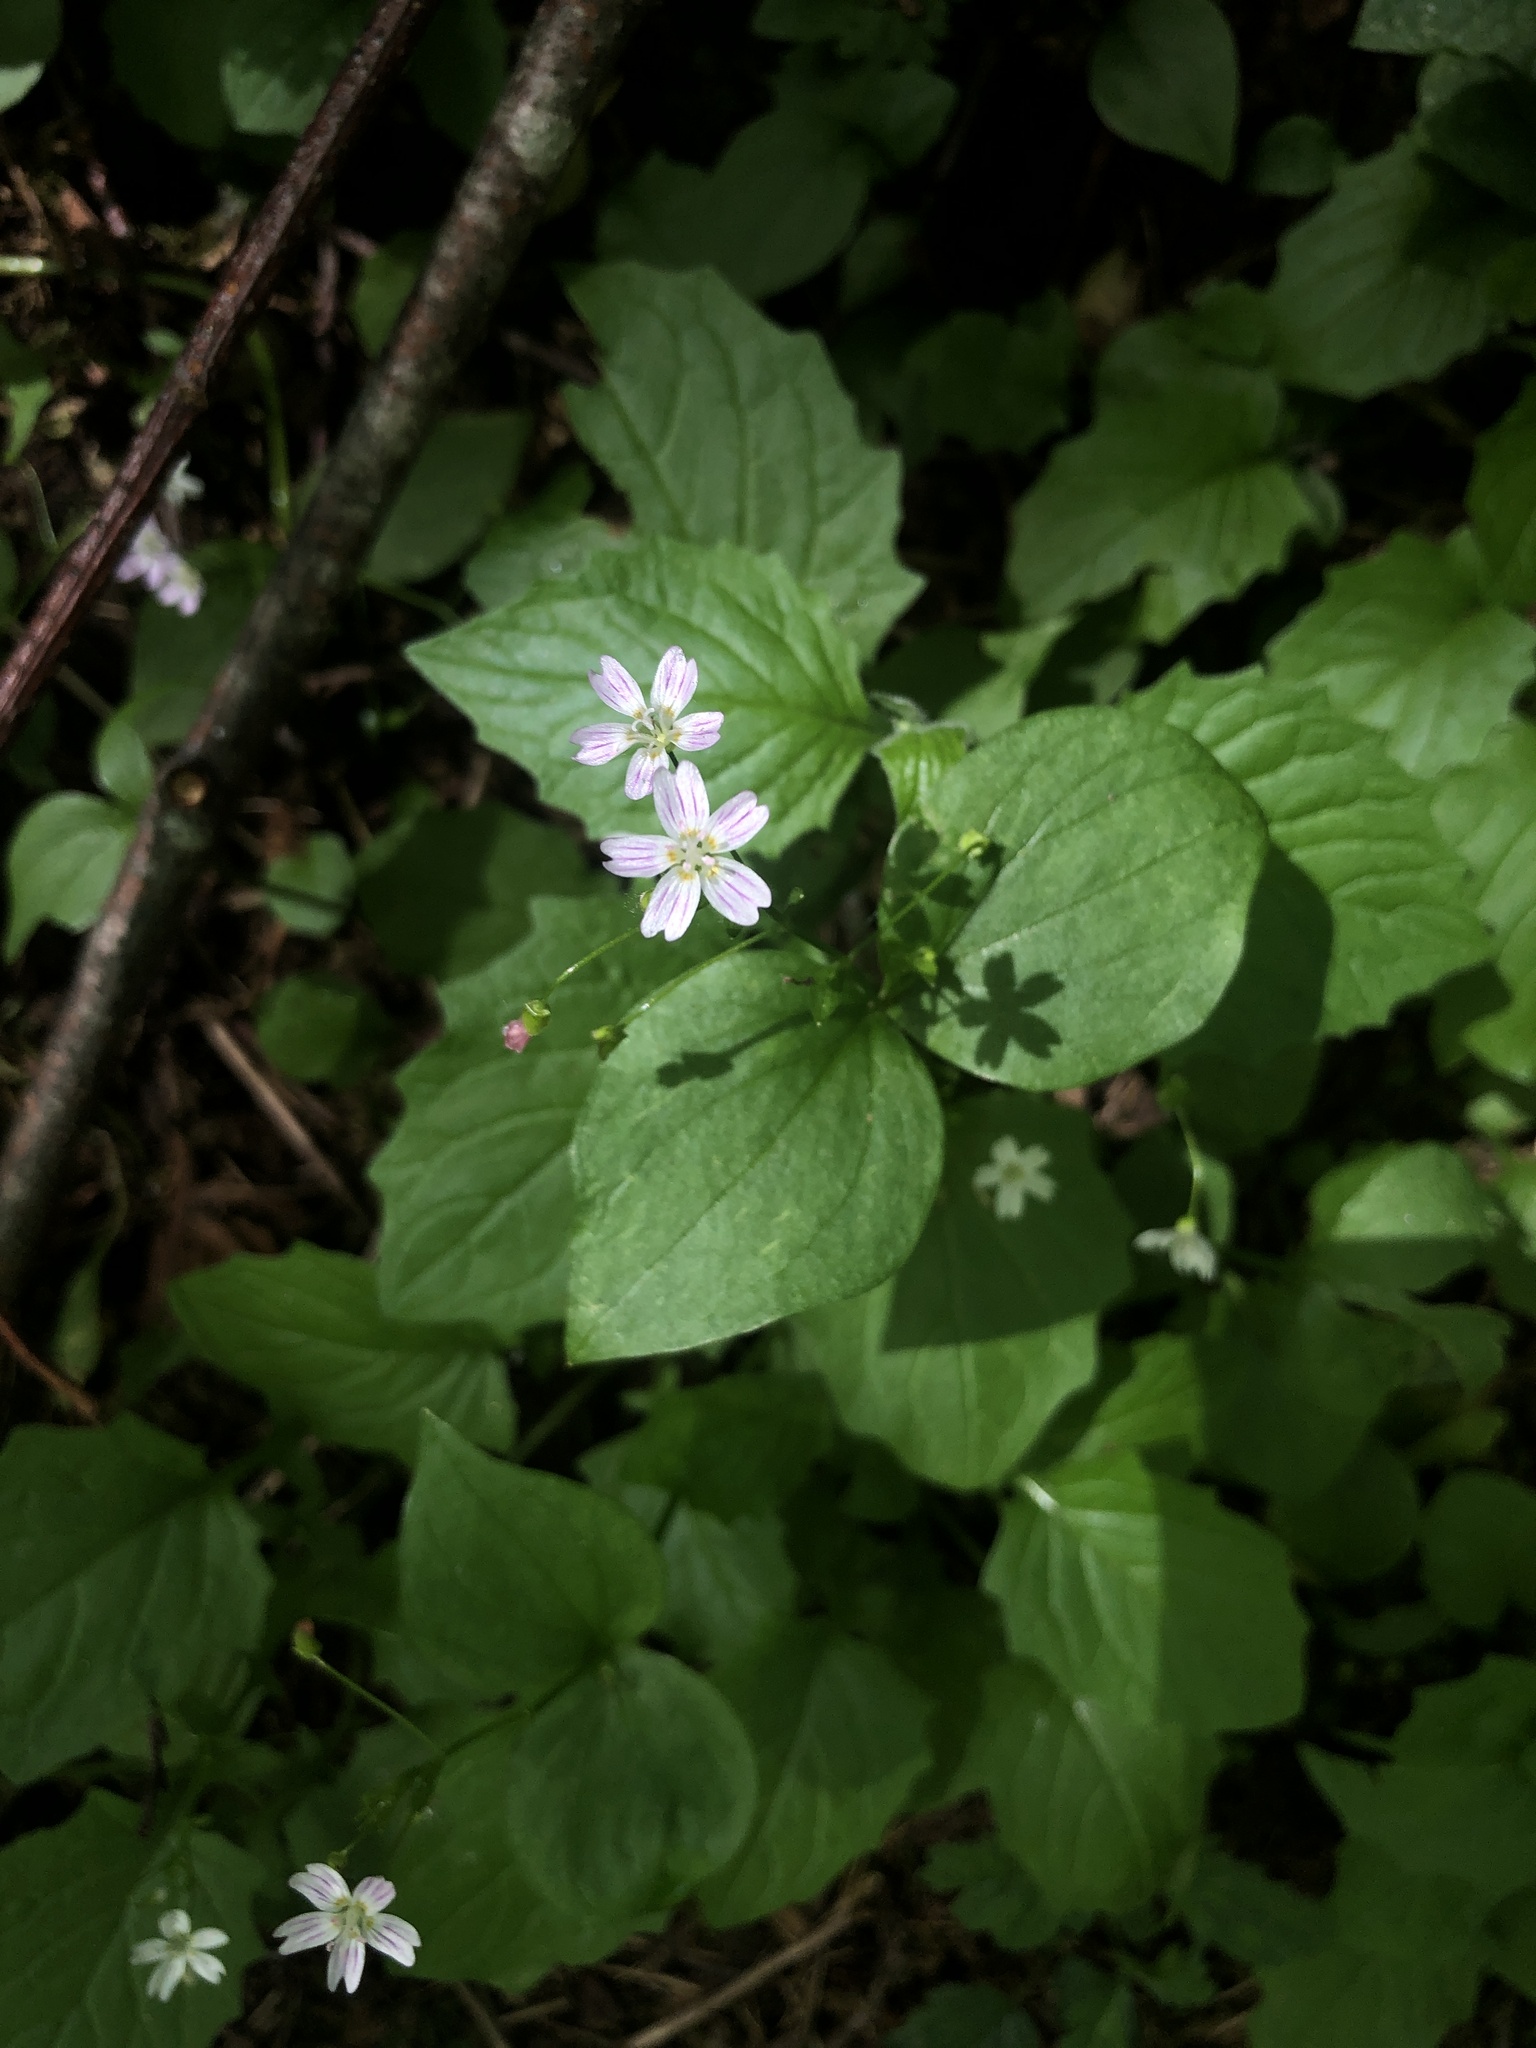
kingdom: Plantae
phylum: Tracheophyta
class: Magnoliopsida
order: Caryophyllales
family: Montiaceae
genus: Claytonia
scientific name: Claytonia sibirica
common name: Pink purslane
